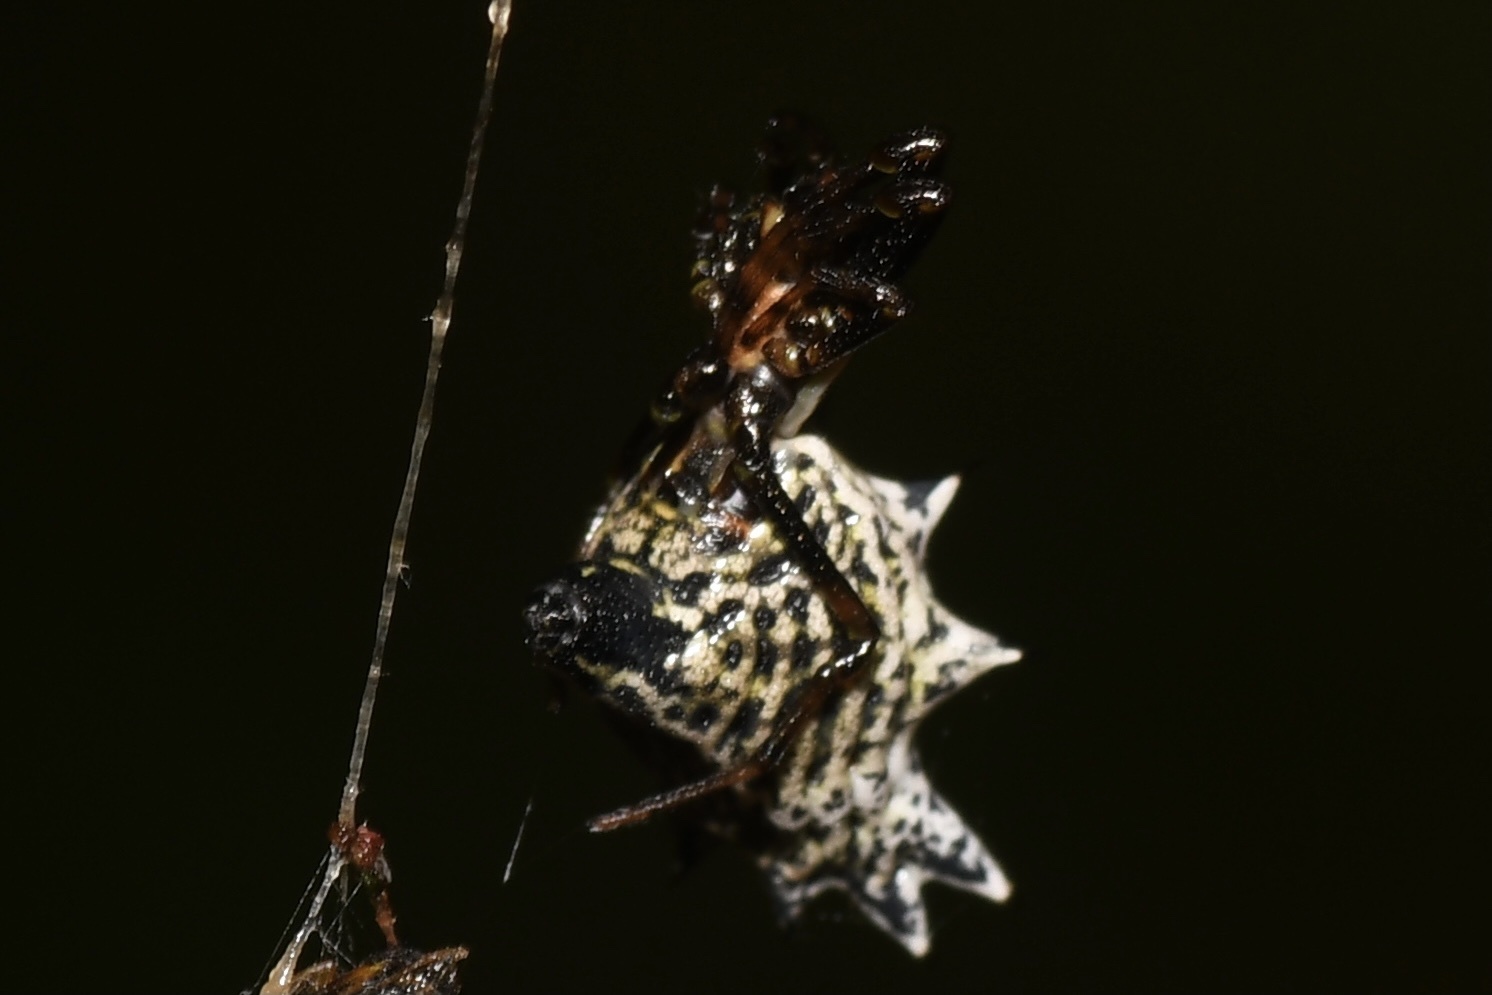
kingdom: Animalia
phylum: Arthropoda
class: Arachnida
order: Araneae
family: Araneidae
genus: Micrathena
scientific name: Micrathena gracilis
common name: Orb weavers
